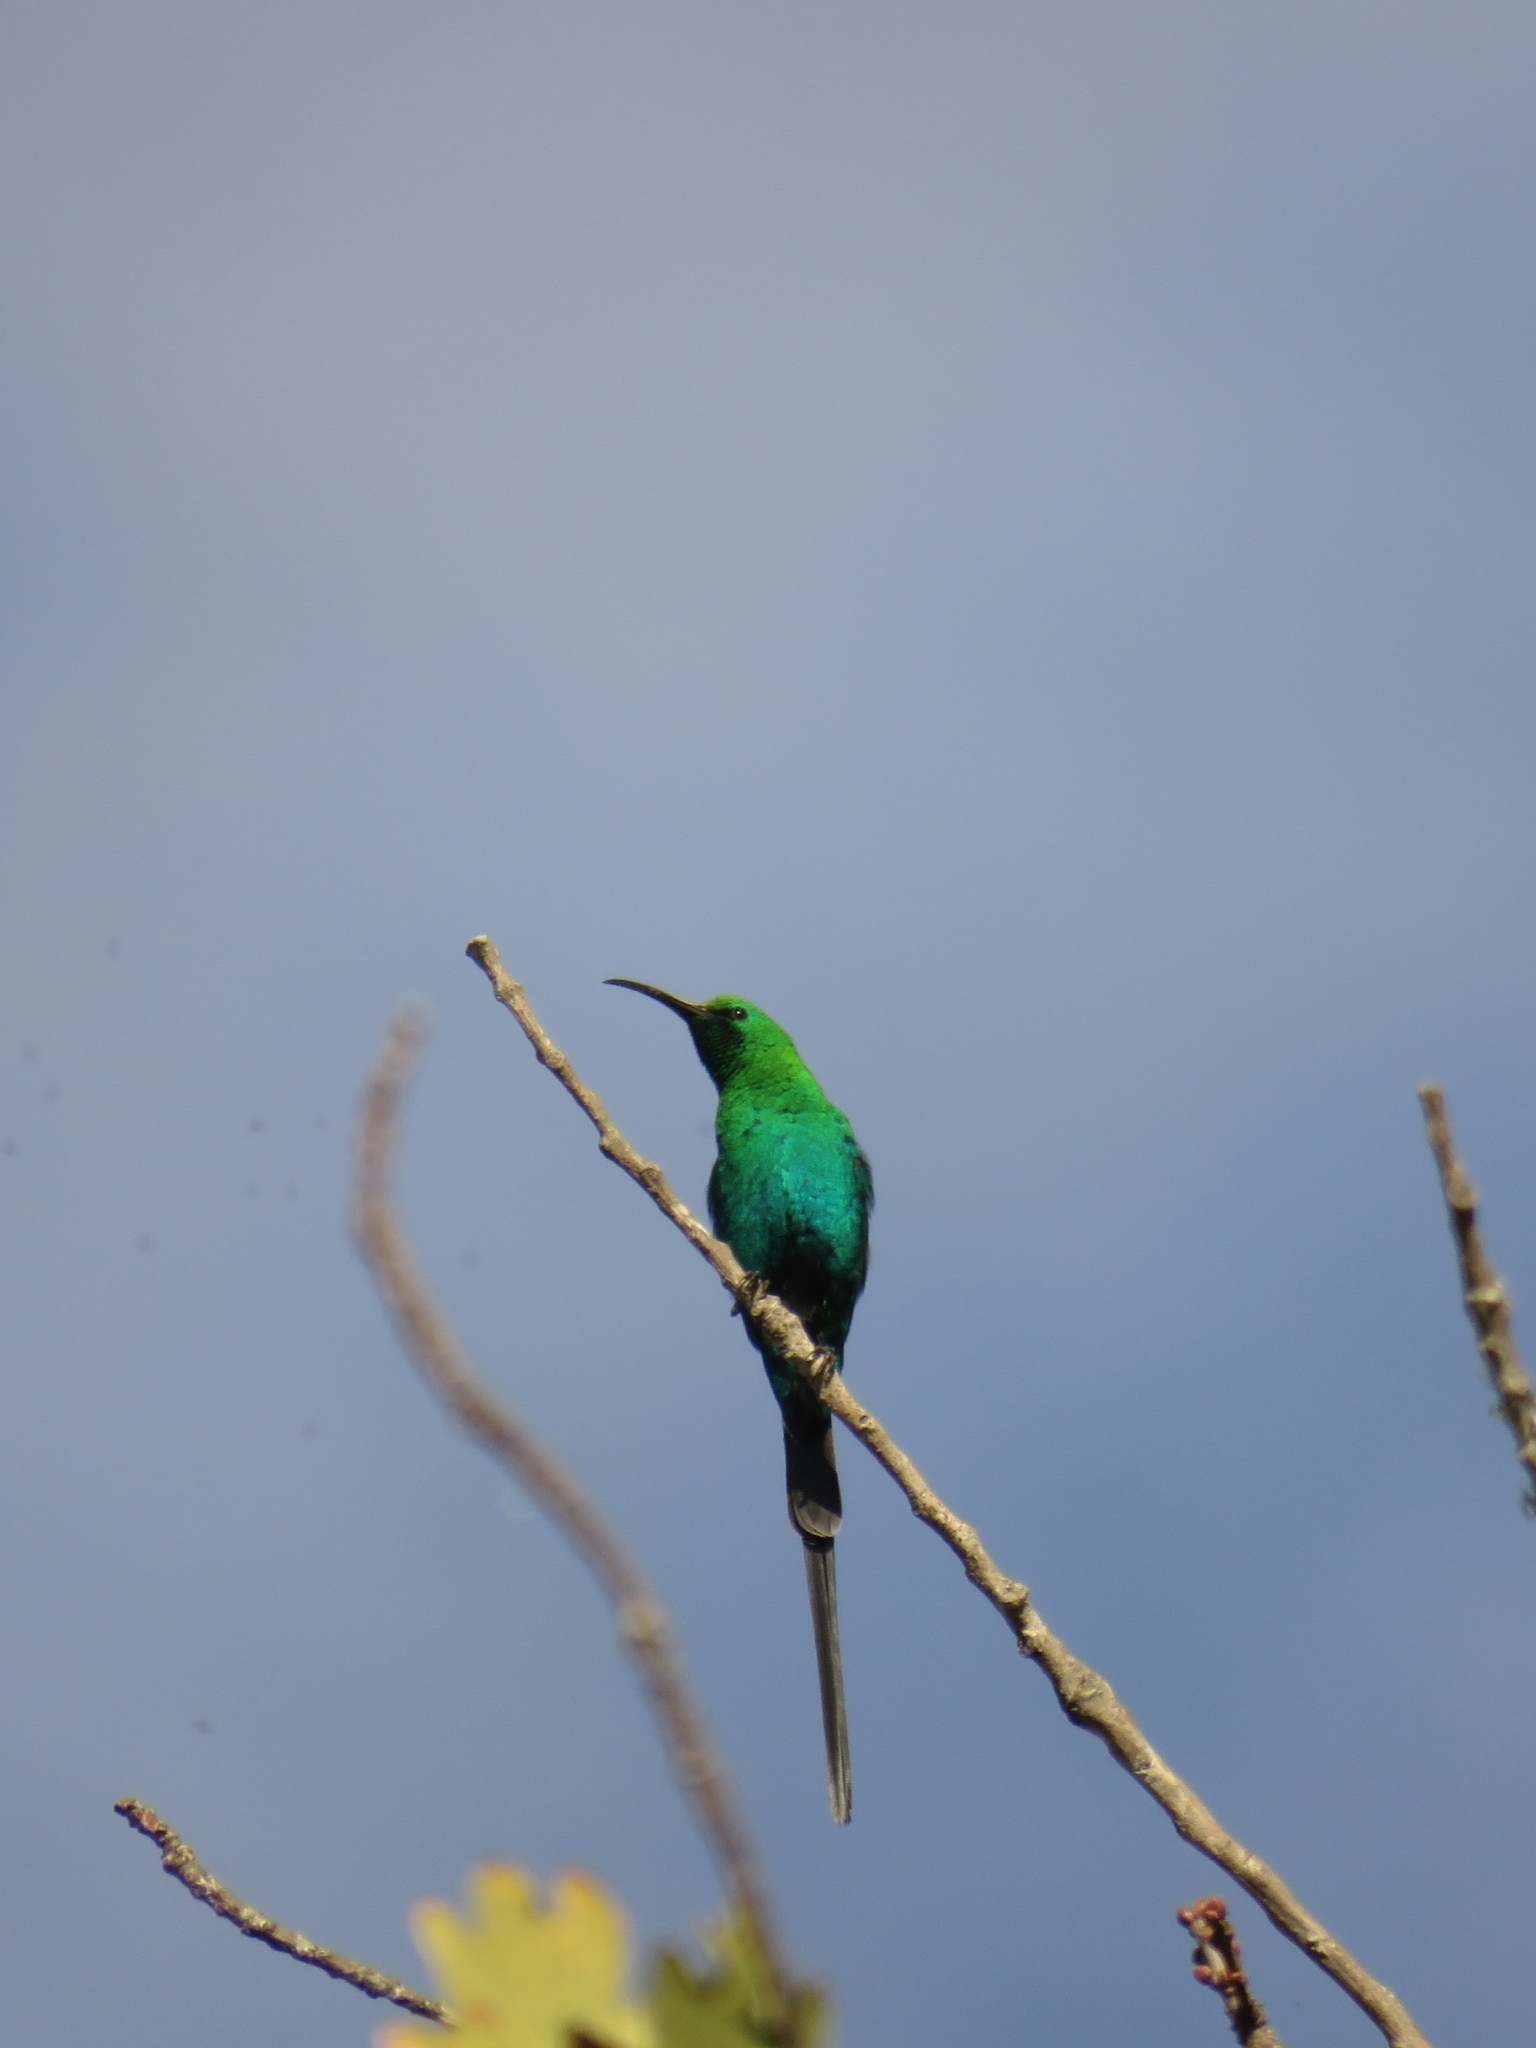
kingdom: Animalia
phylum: Chordata
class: Aves
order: Passeriformes
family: Nectariniidae
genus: Nectarinia
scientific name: Nectarinia famosa
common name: Malachite sunbird
